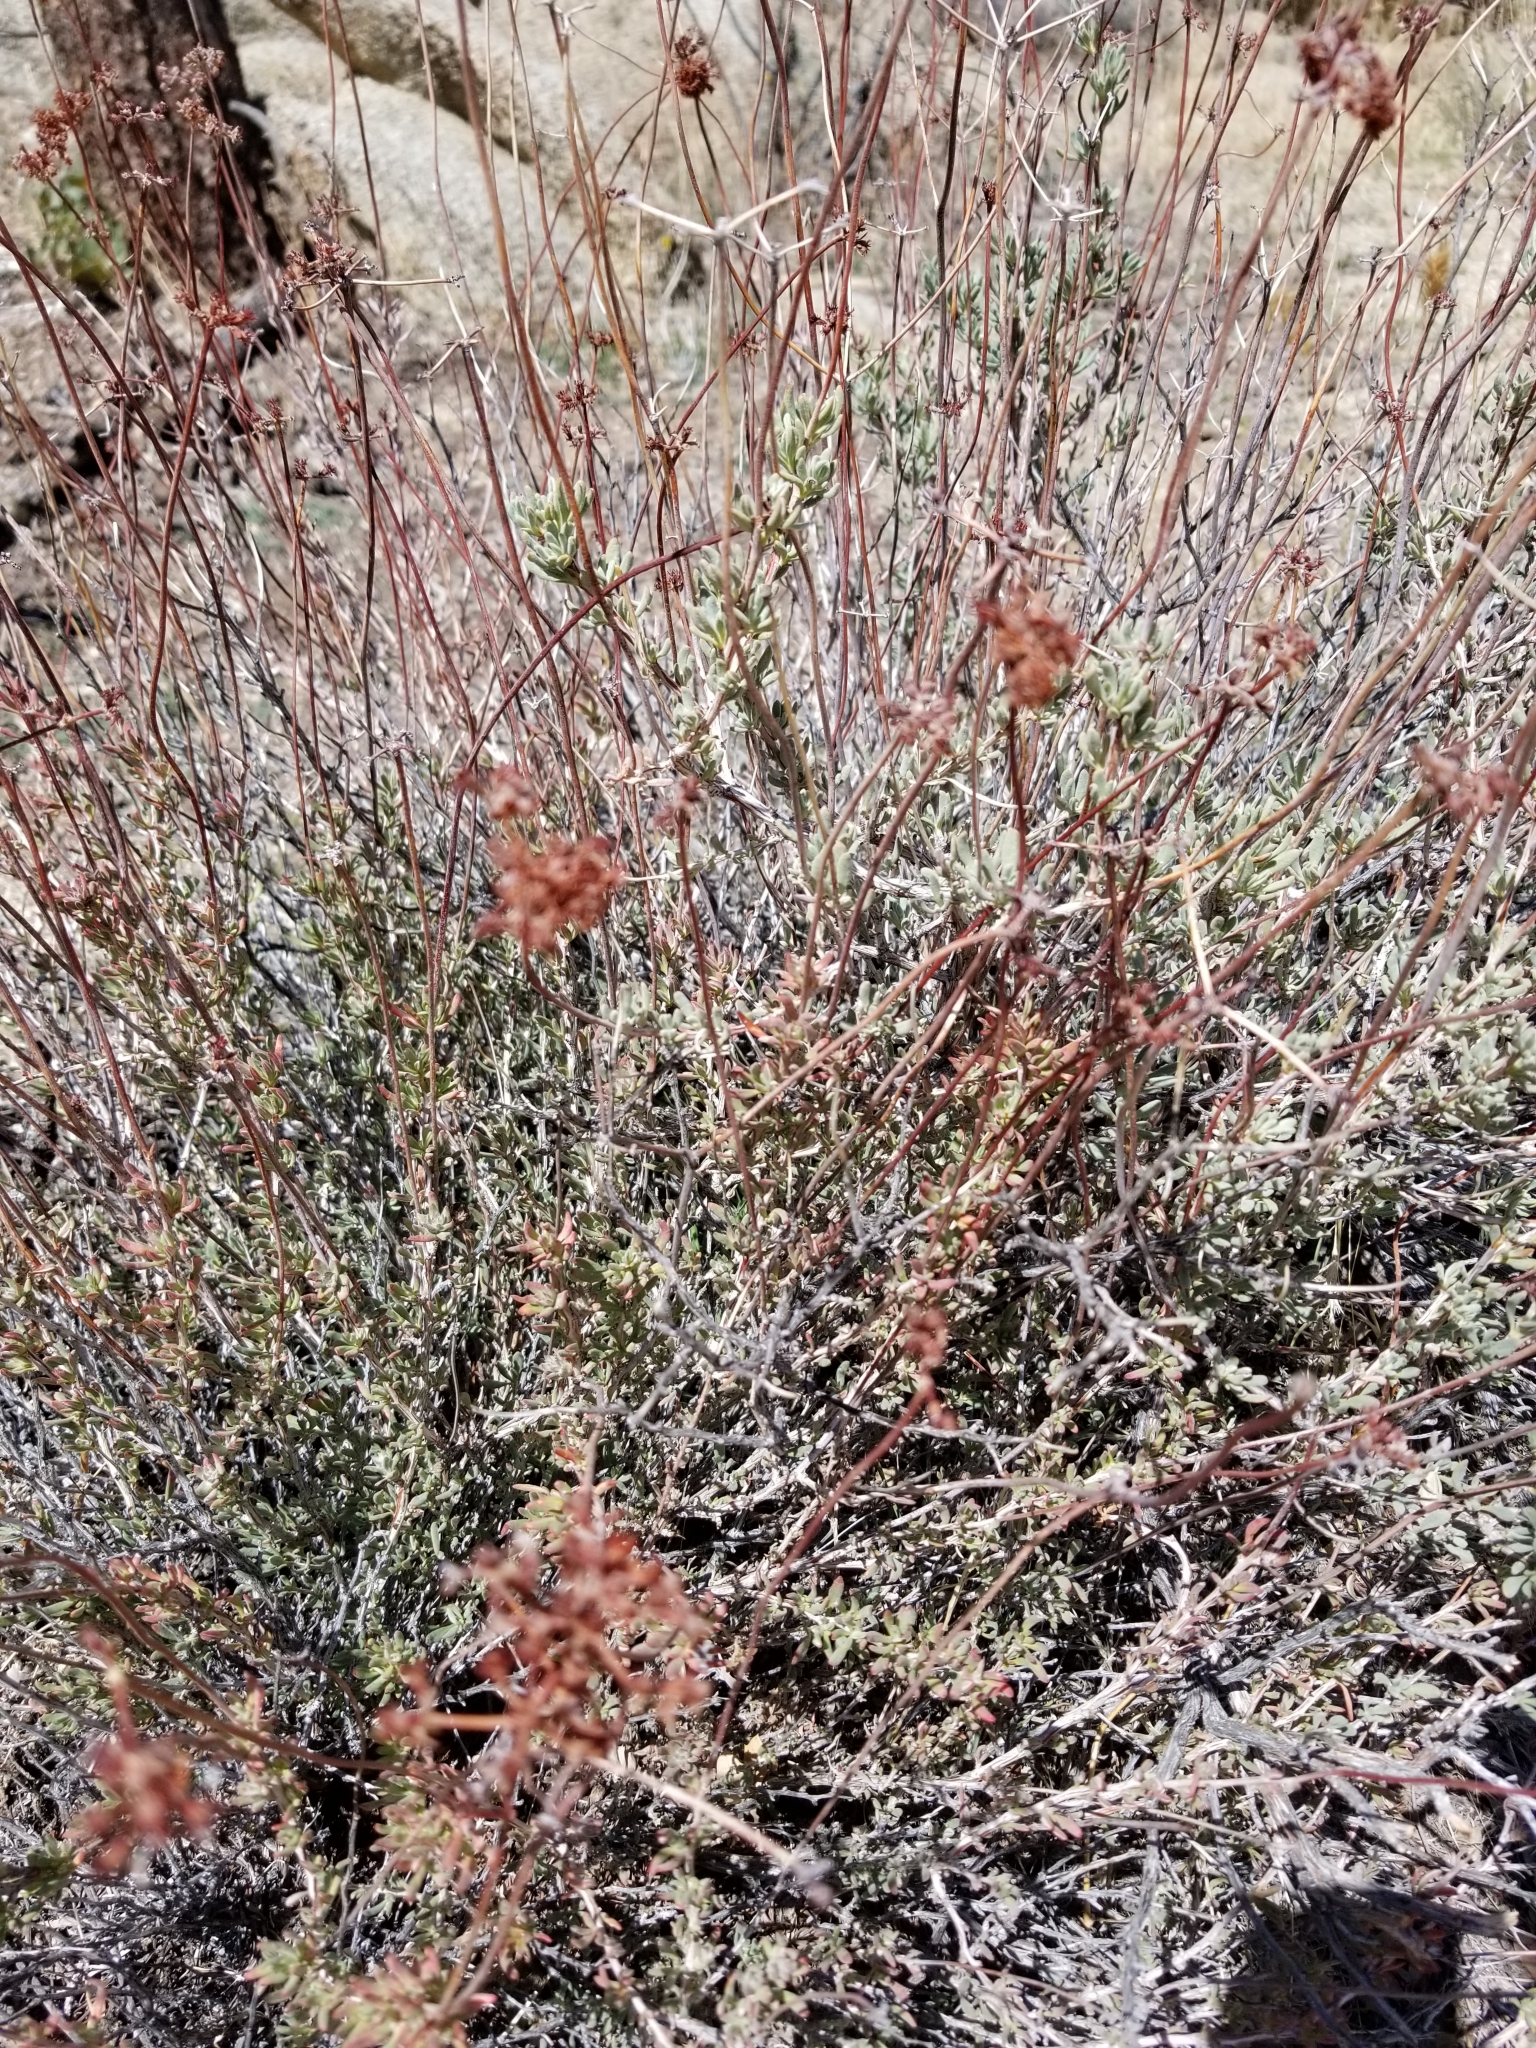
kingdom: Plantae
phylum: Tracheophyta
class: Magnoliopsida
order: Caryophyllales
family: Polygonaceae
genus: Eriogonum
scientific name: Eriogonum fasciculatum
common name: California wild buckwheat
